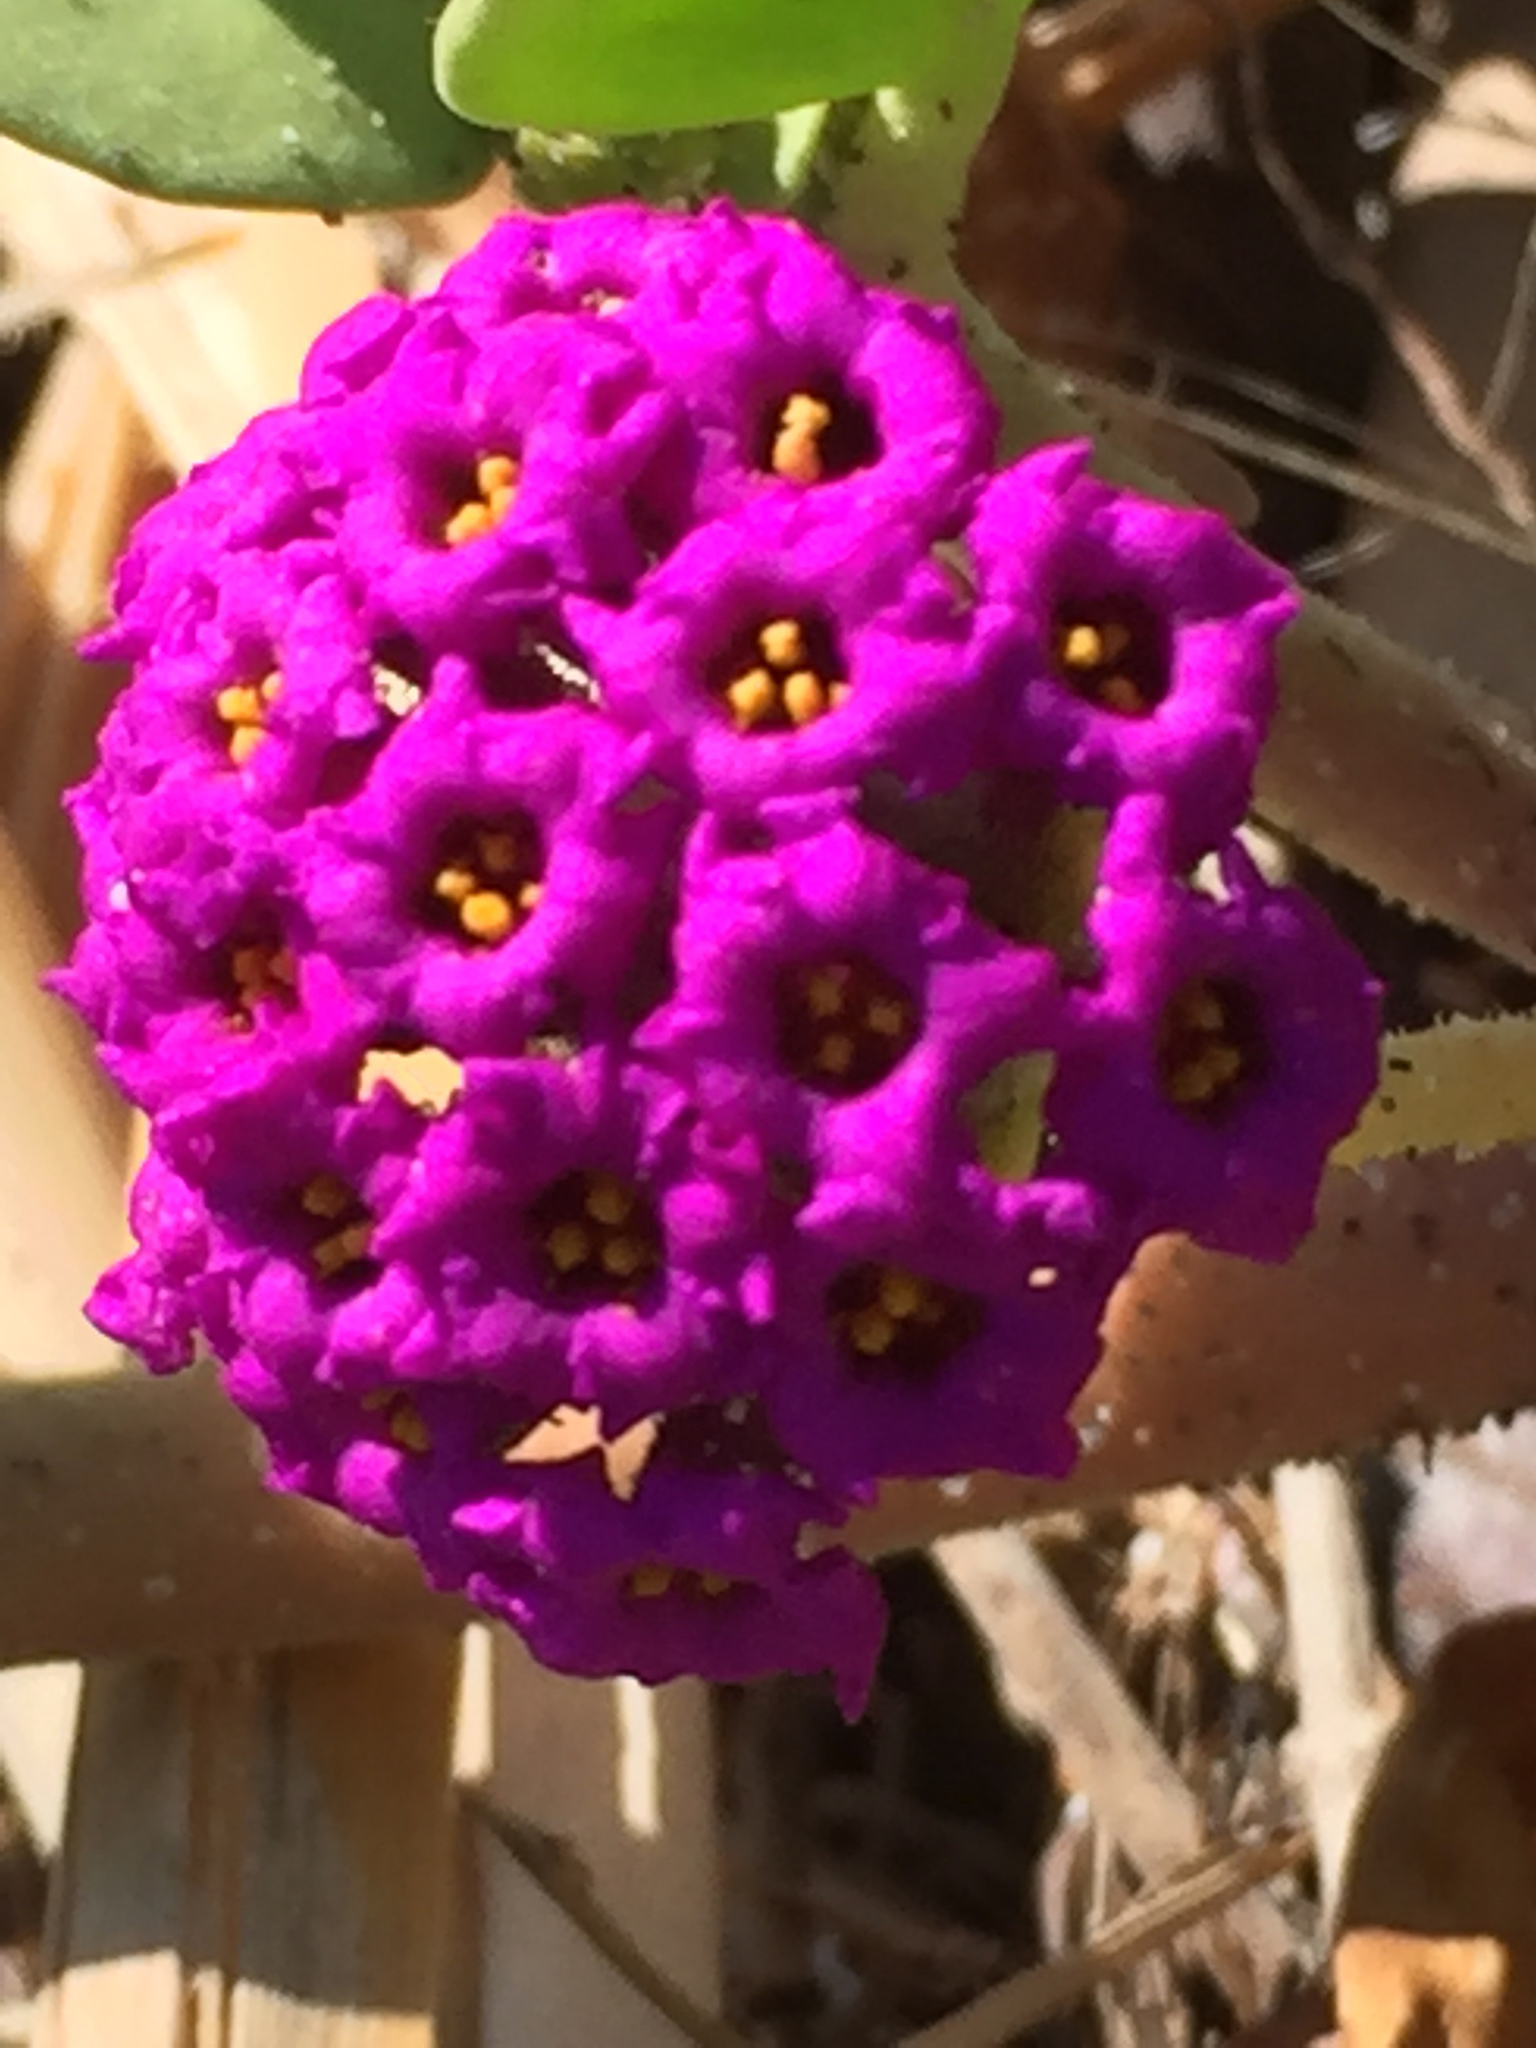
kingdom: Plantae
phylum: Tracheophyta
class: Magnoliopsida
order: Caryophyllales
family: Nyctaginaceae
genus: Abronia
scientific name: Abronia maritima
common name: Red sand-verbena
